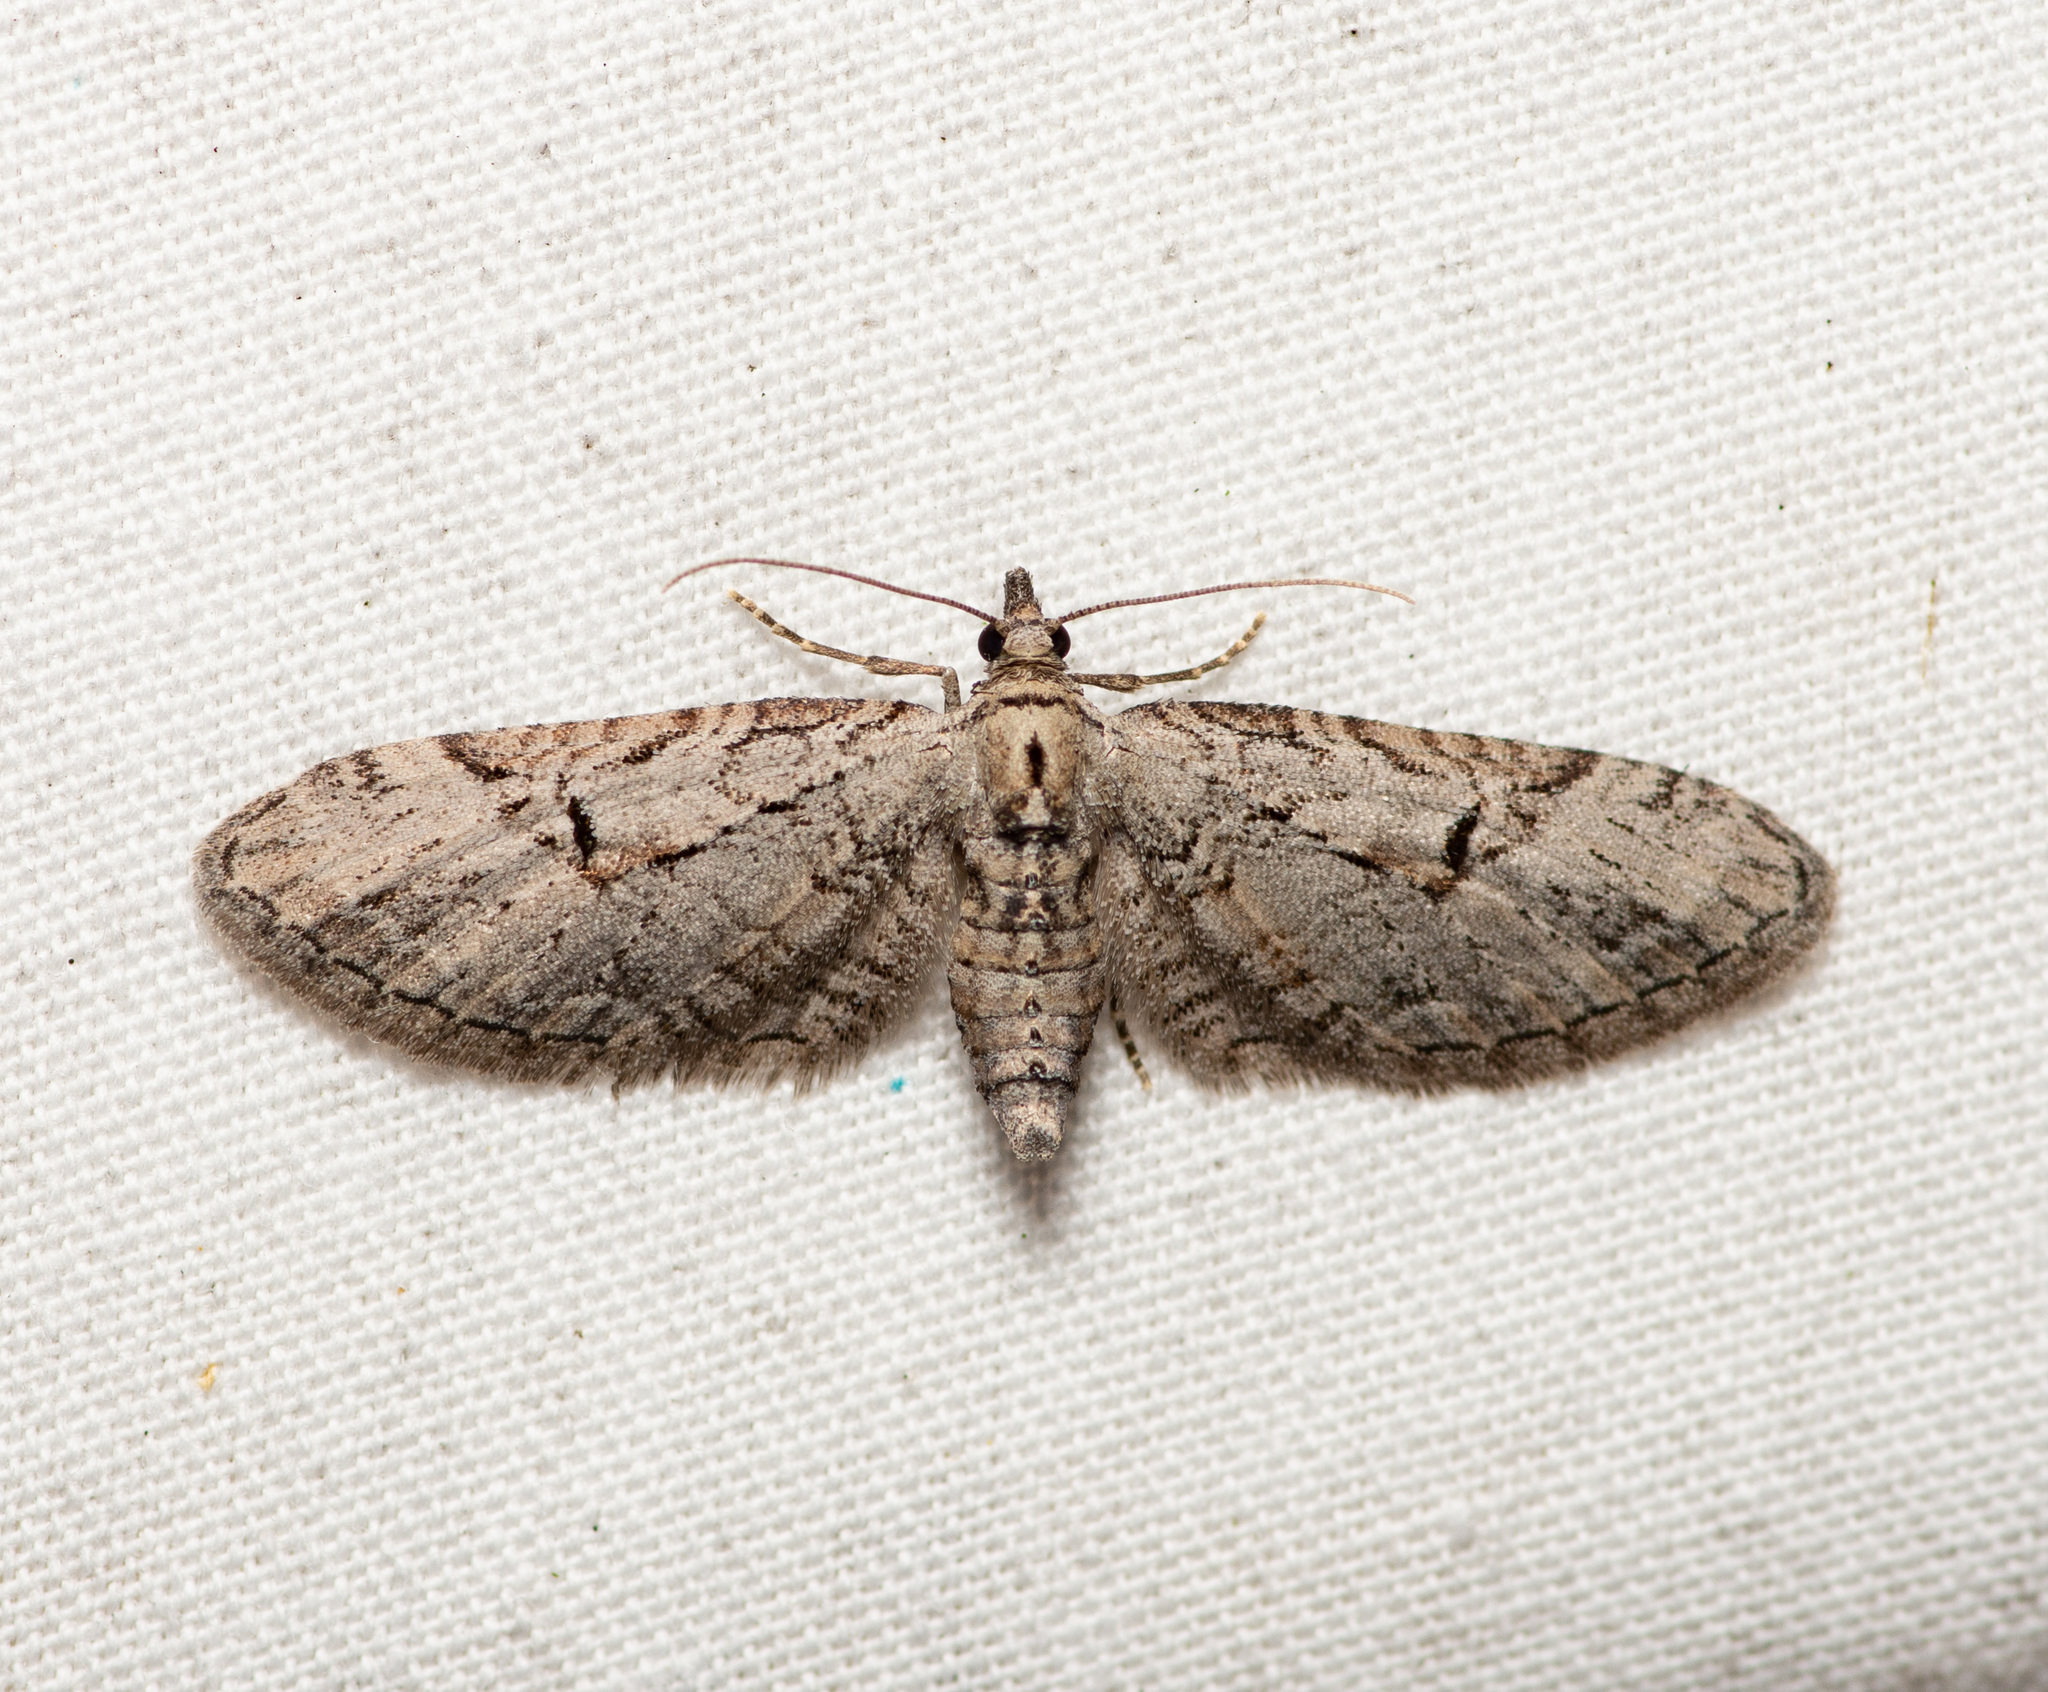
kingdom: Animalia
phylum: Arthropoda
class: Insecta
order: Lepidoptera
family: Geometridae
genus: Eupithecia
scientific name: Eupithecia bolterii
